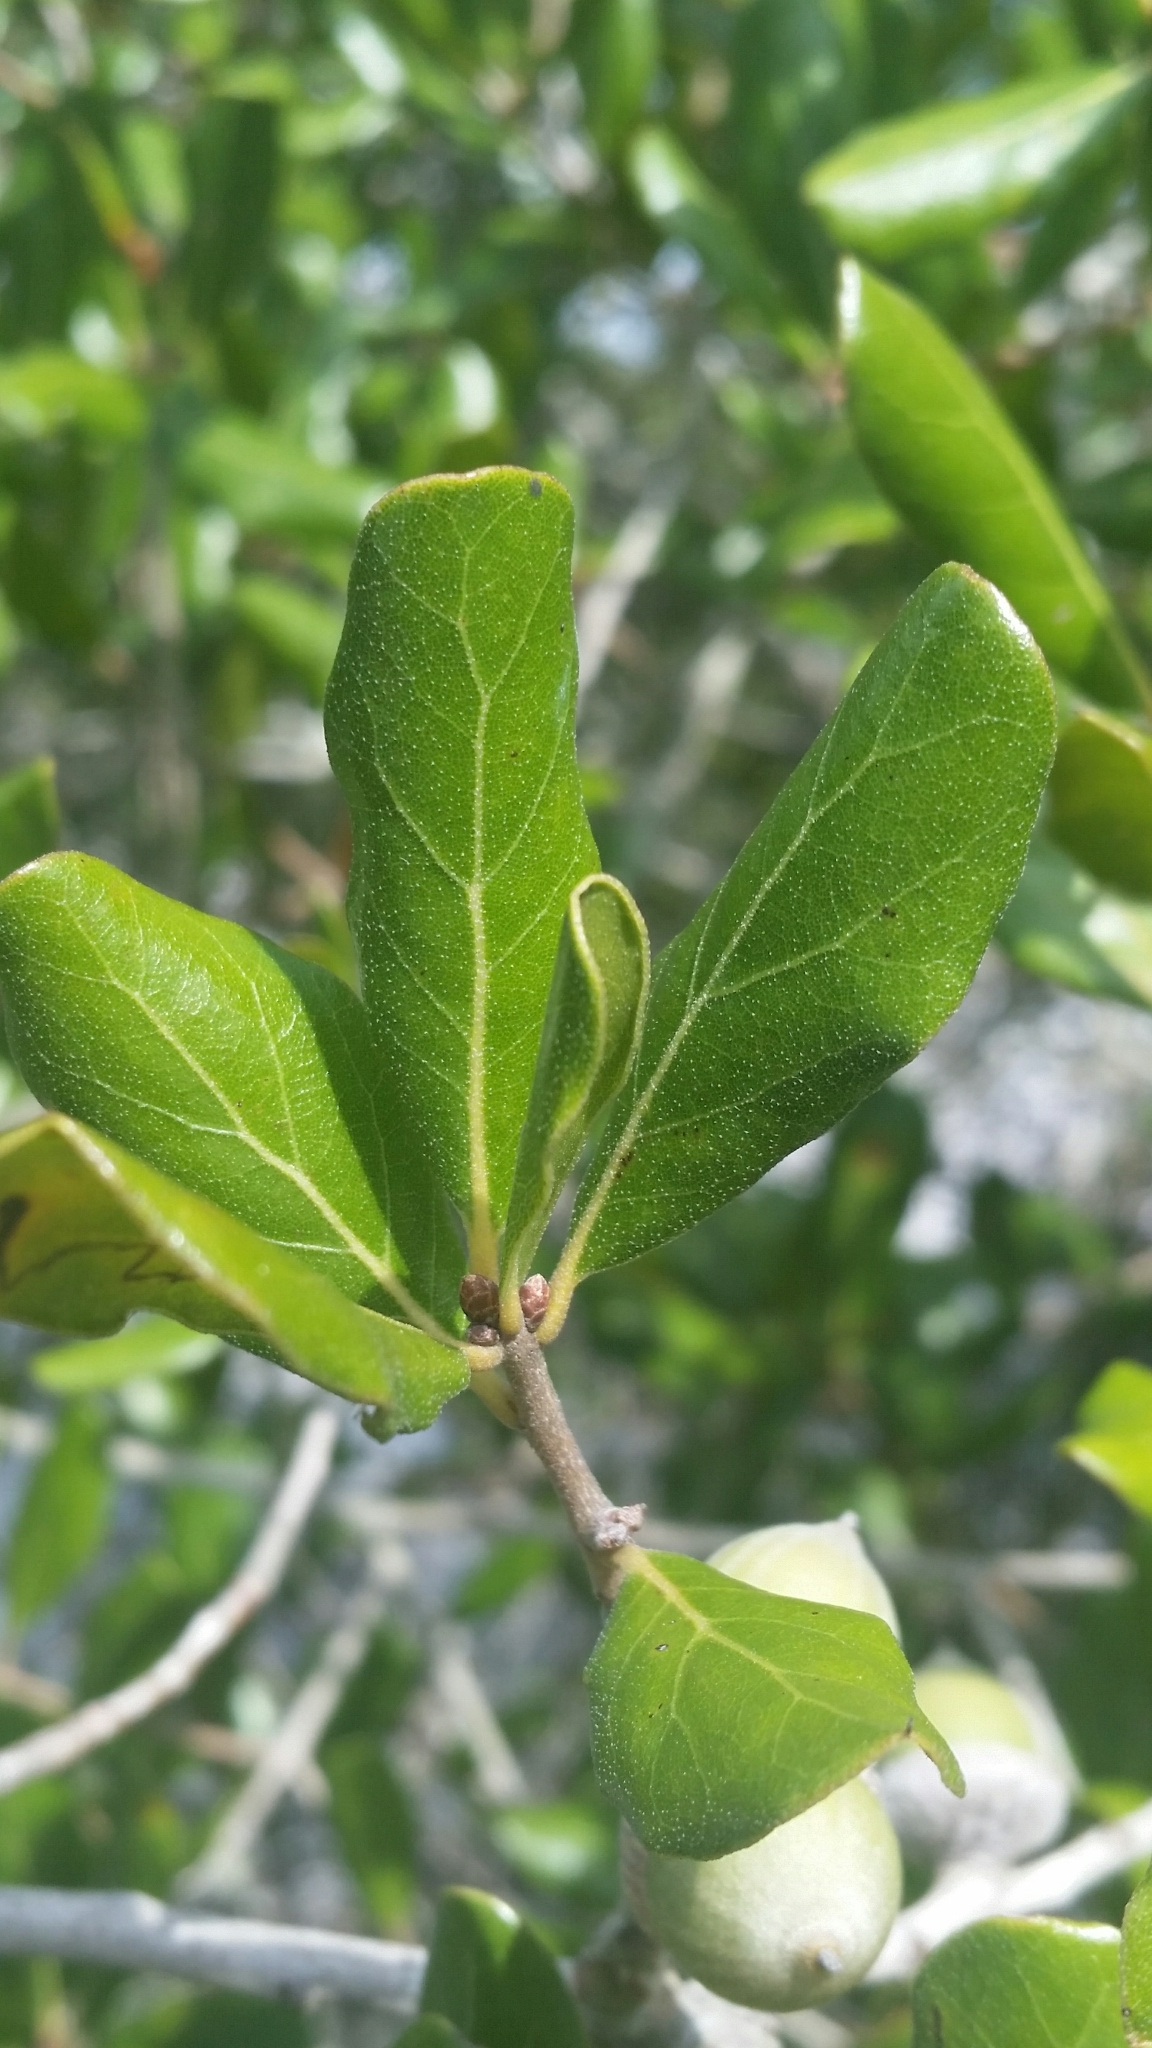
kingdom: Plantae
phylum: Tracheophyta
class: Magnoliopsida
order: Fagales
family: Fagaceae
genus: Quercus
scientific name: Quercus myrtifolia
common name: Myrtle oak
